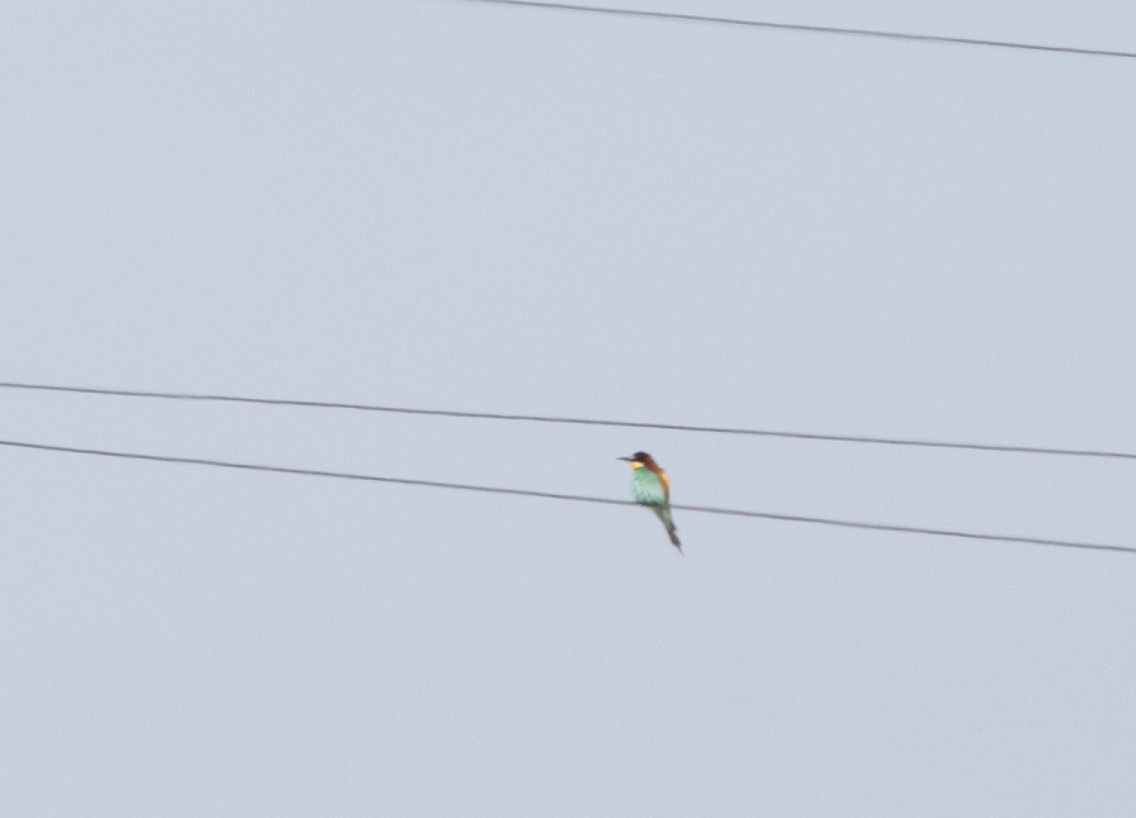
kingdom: Animalia
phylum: Chordata
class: Aves
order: Coraciiformes
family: Meropidae
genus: Merops
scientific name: Merops apiaster
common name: European bee-eater
